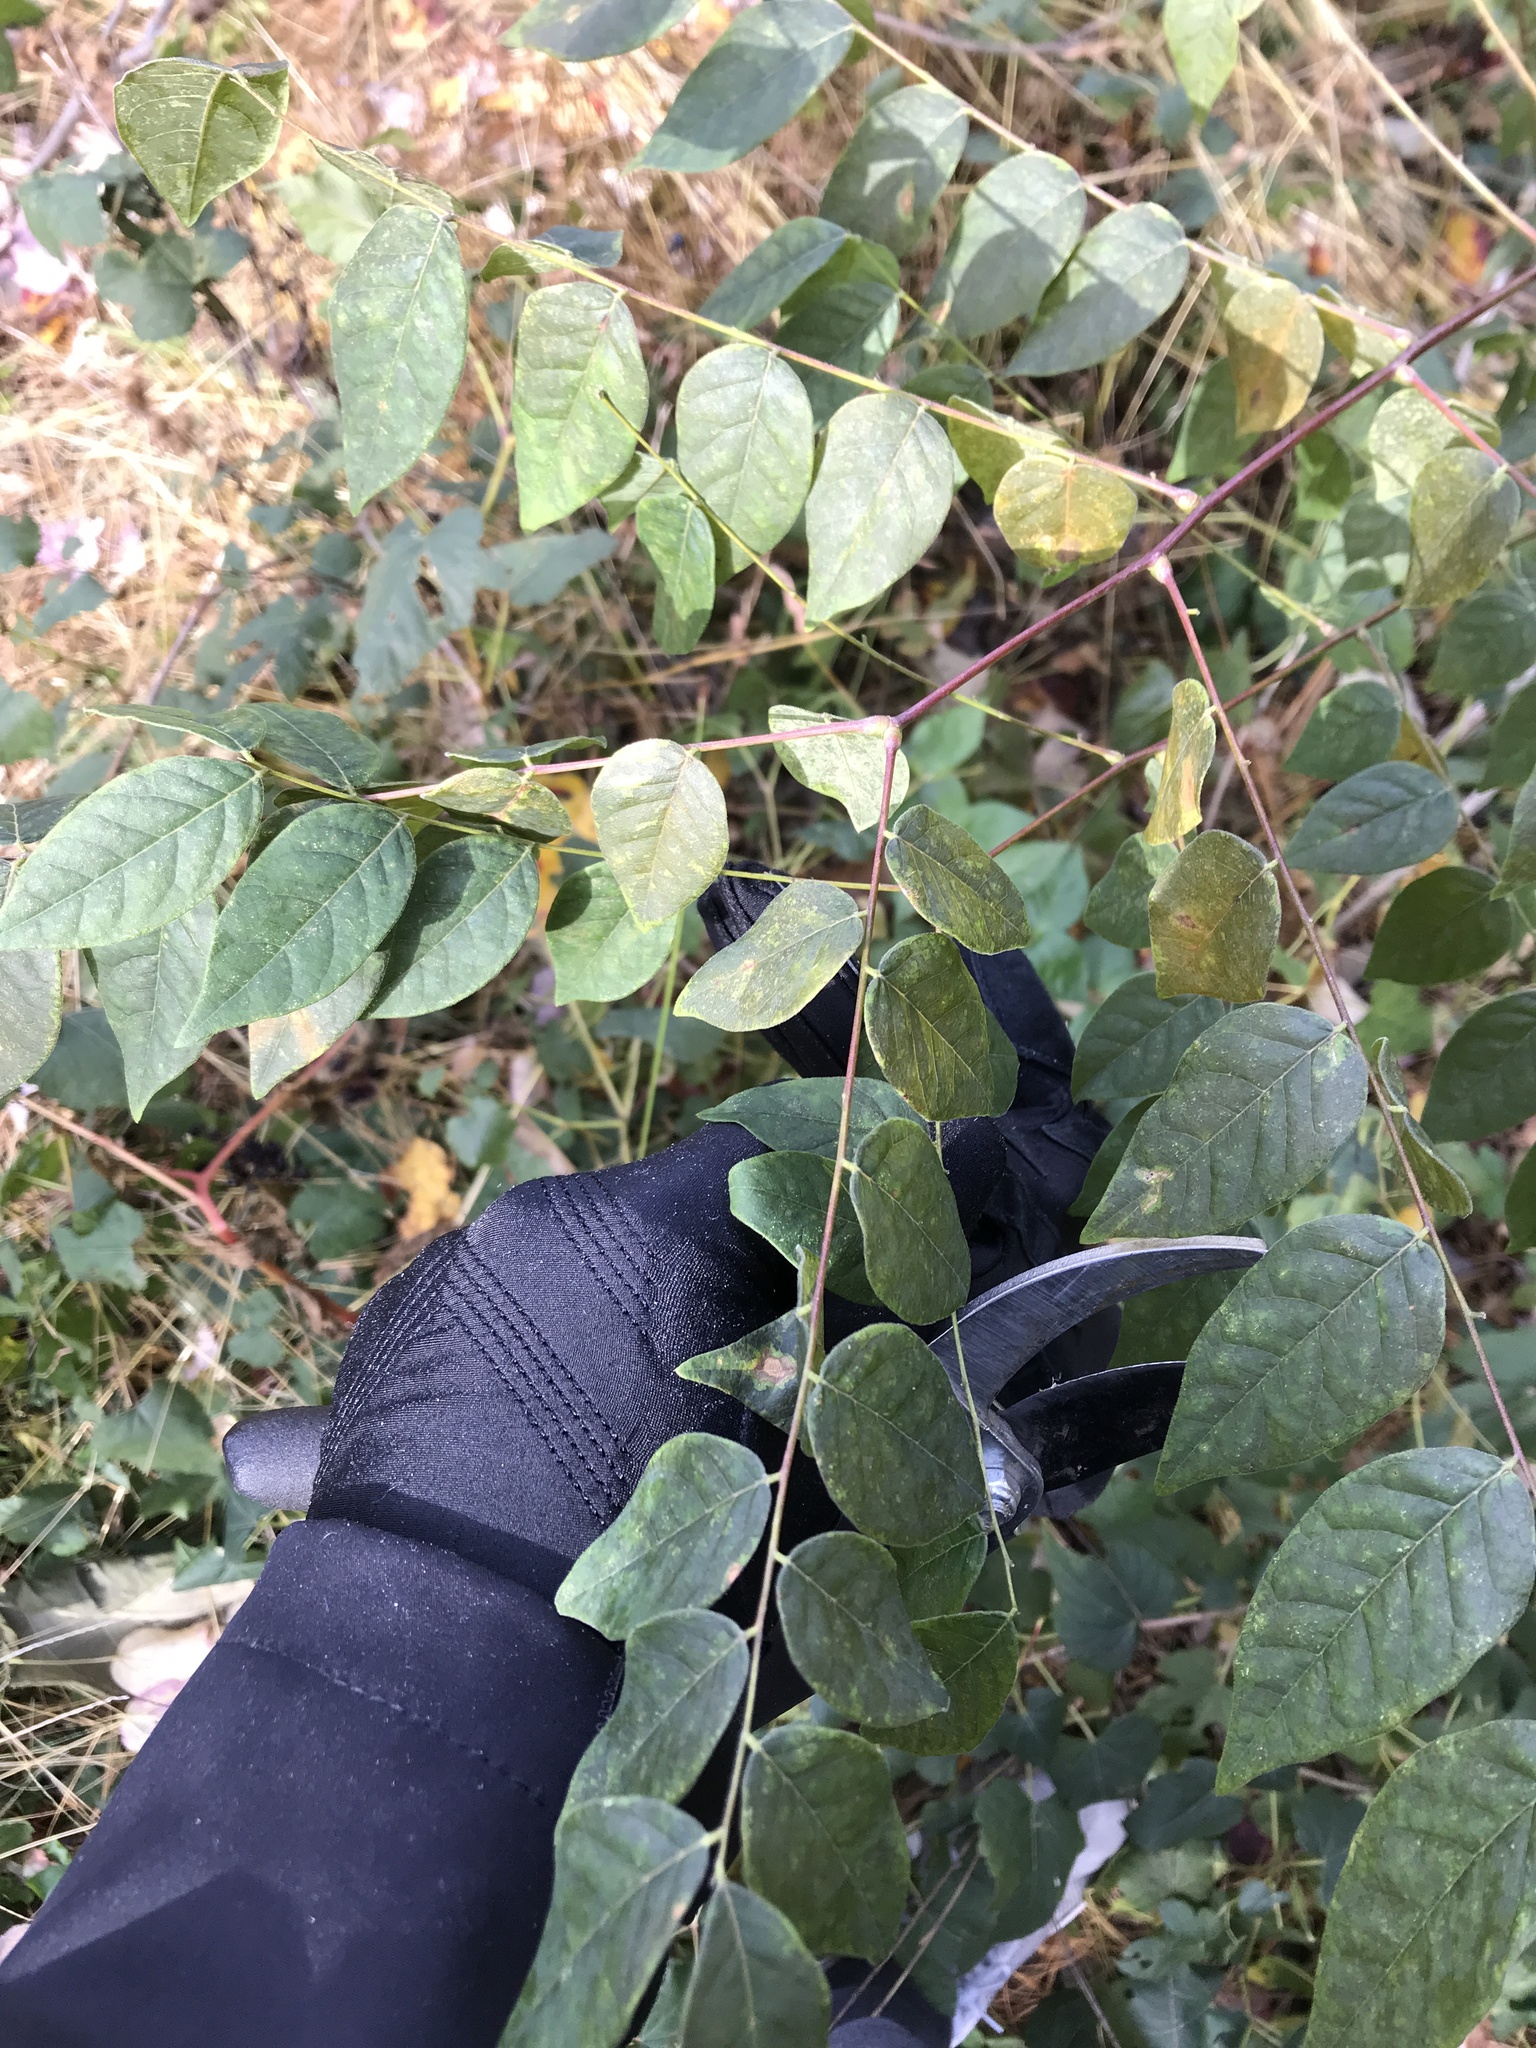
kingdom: Plantae
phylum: Tracheophyta
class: Magnoliopsida
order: Fabales
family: Fabaceae
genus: Gymnocladus
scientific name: Gymnocladus dioicus
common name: Kentucky coffee-tree
